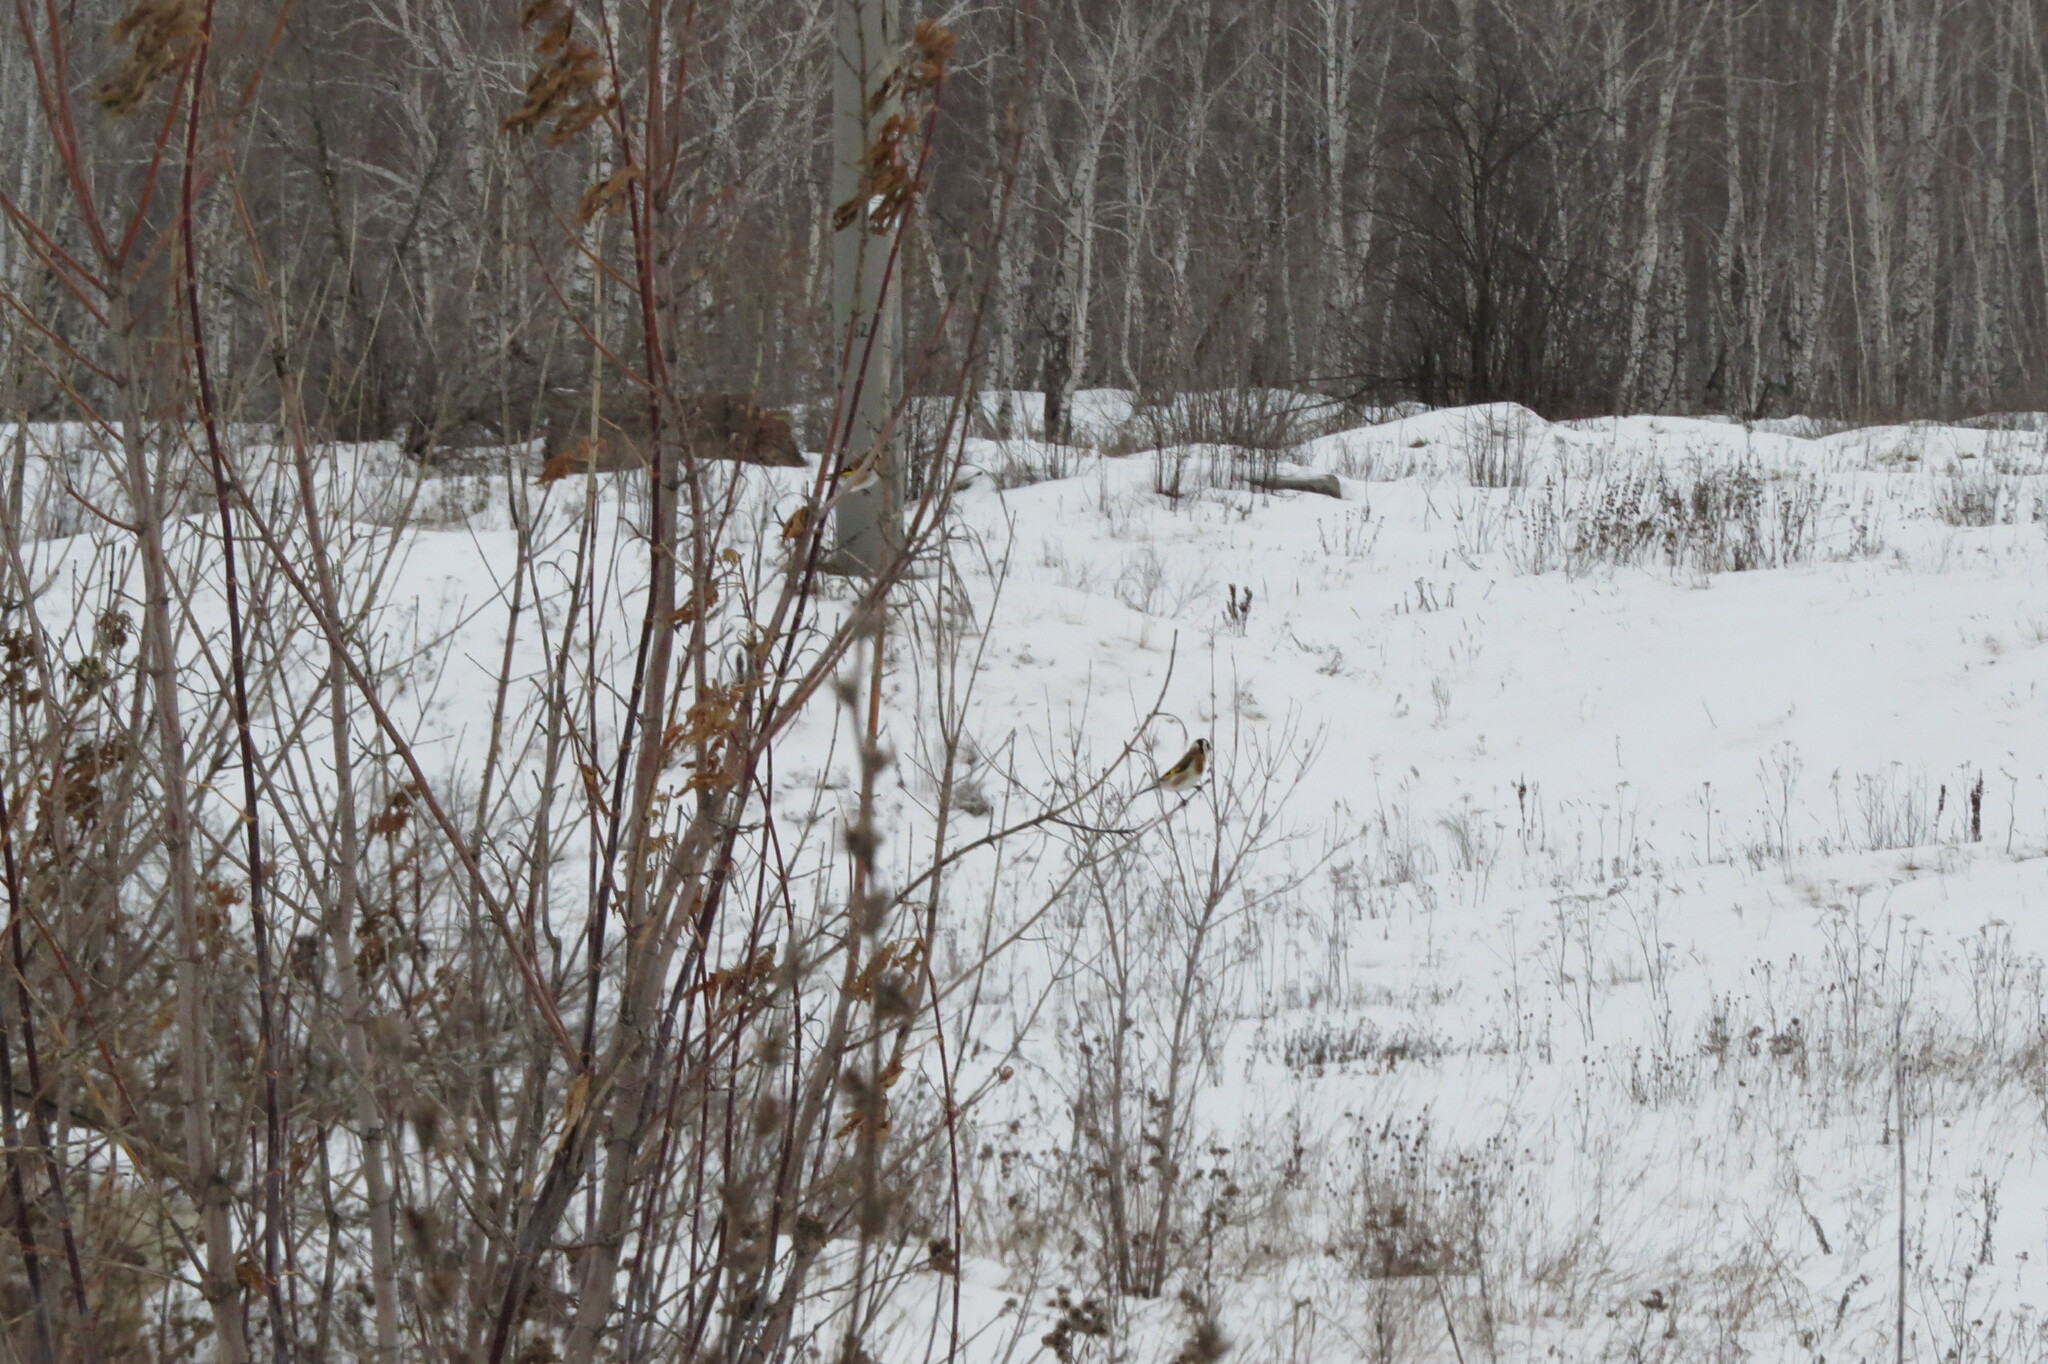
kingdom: Animalia
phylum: Chordata
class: Aves
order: Passeriformes
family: Fringillidae
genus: Carduelis
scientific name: Carduelis carduelis
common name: European goldfinch
